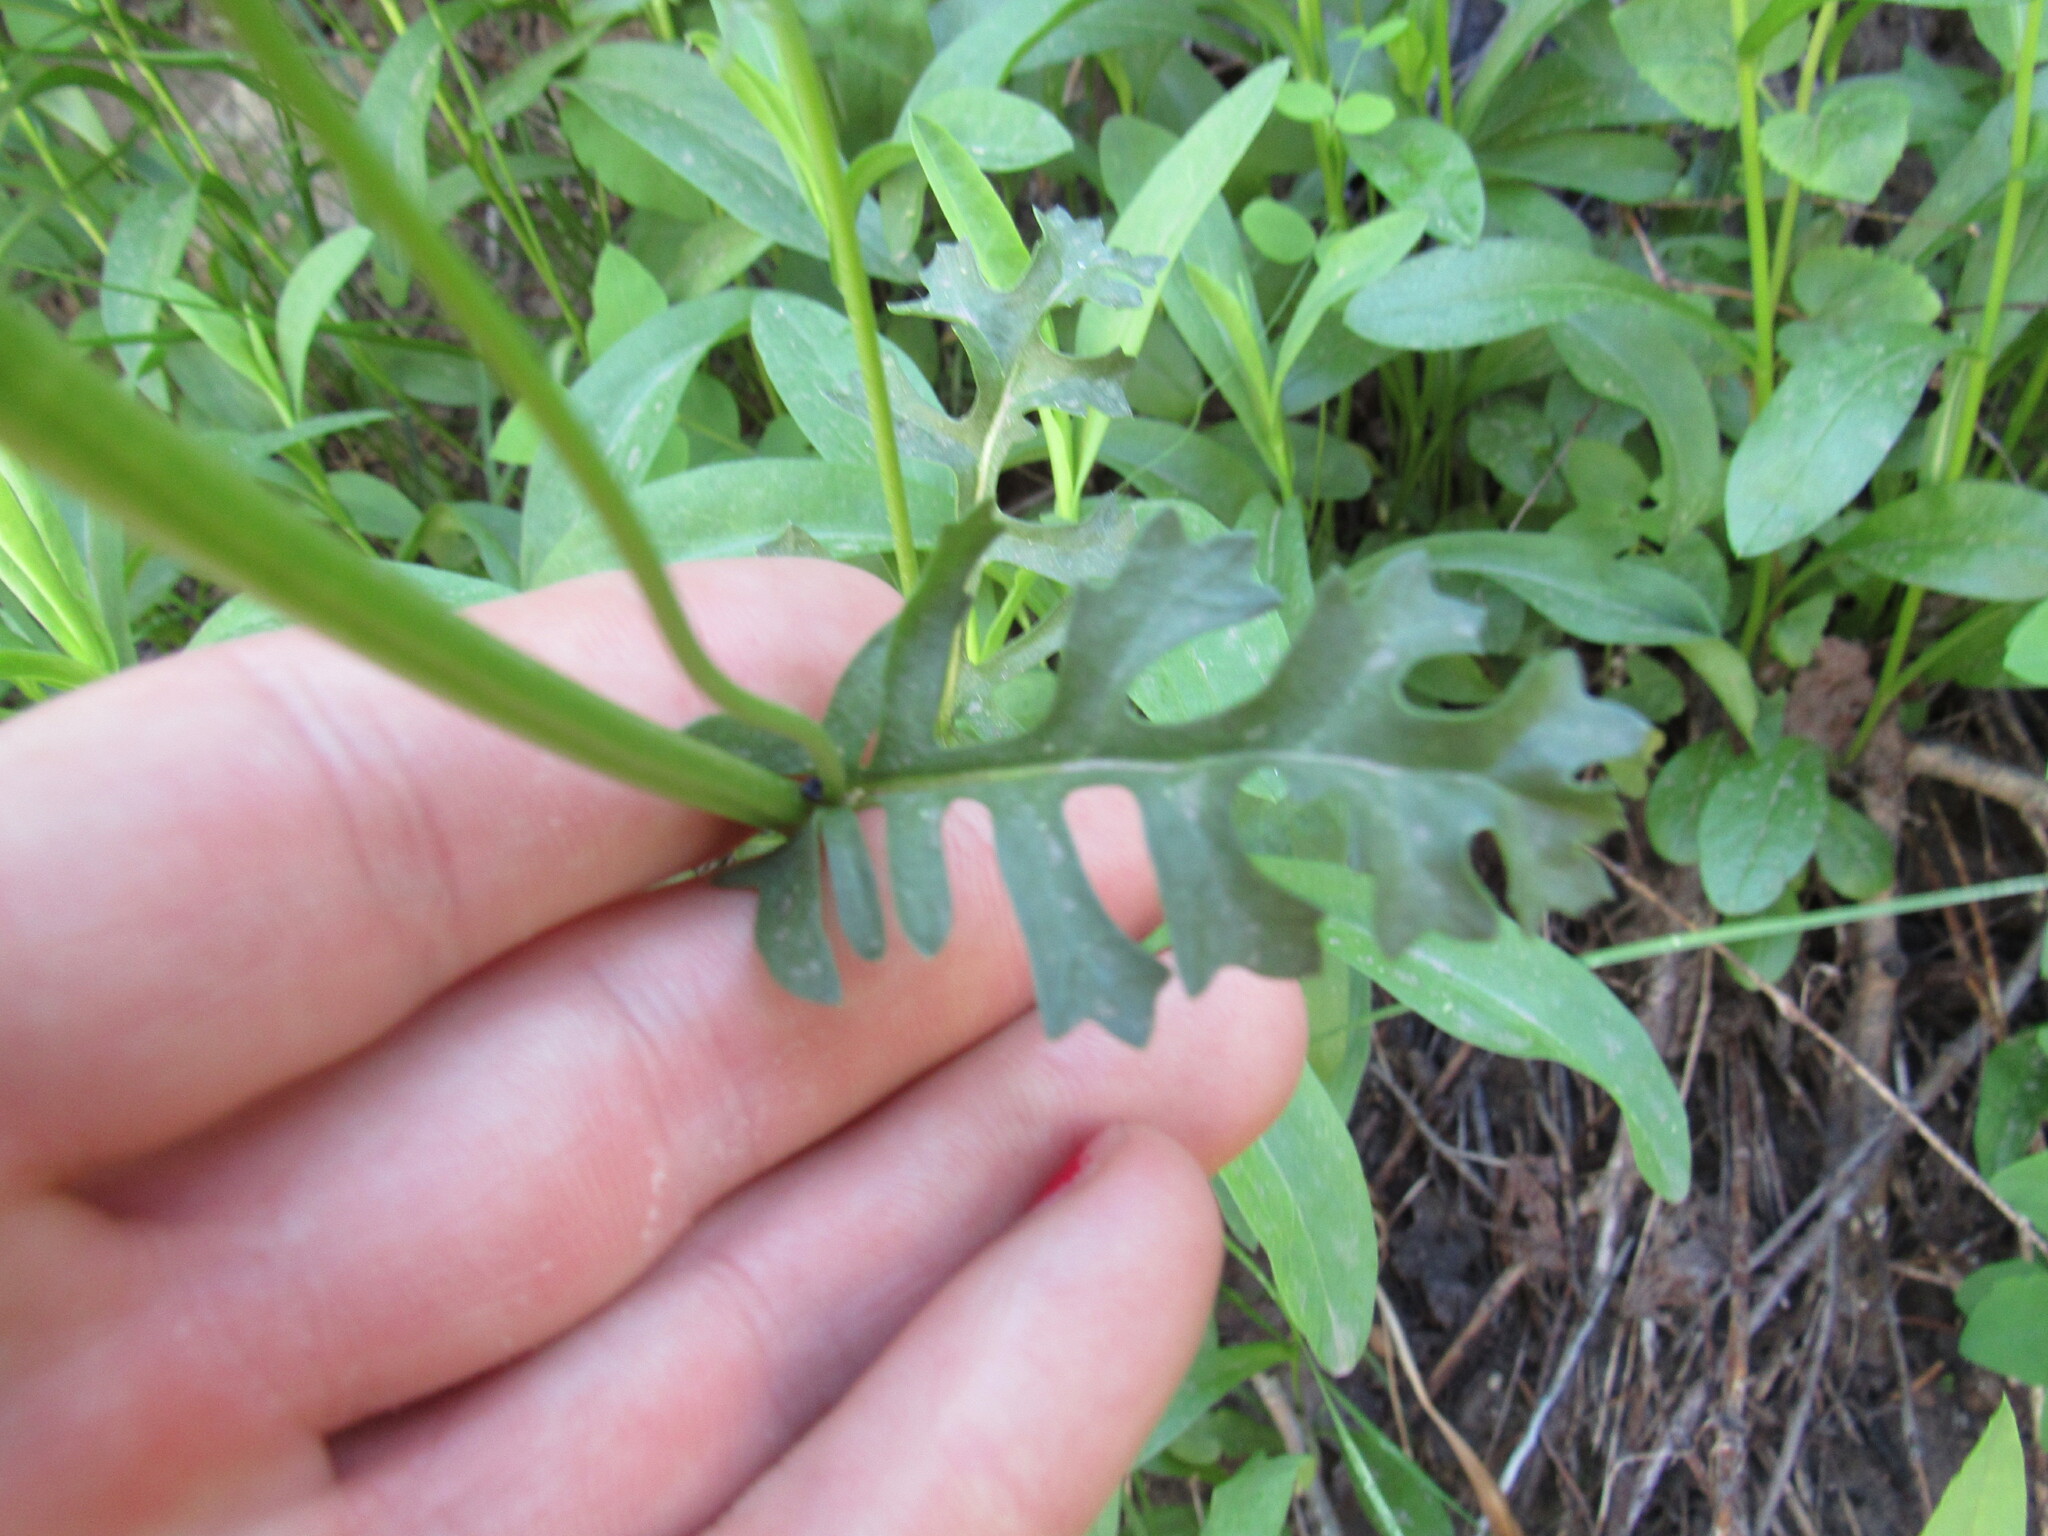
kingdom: Plantae
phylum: Tracheophyta
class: Magnoliopsida
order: Asterales
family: Asteraceae
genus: Packera
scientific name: Packera multilobata
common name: Lobe-leaf groundsel
